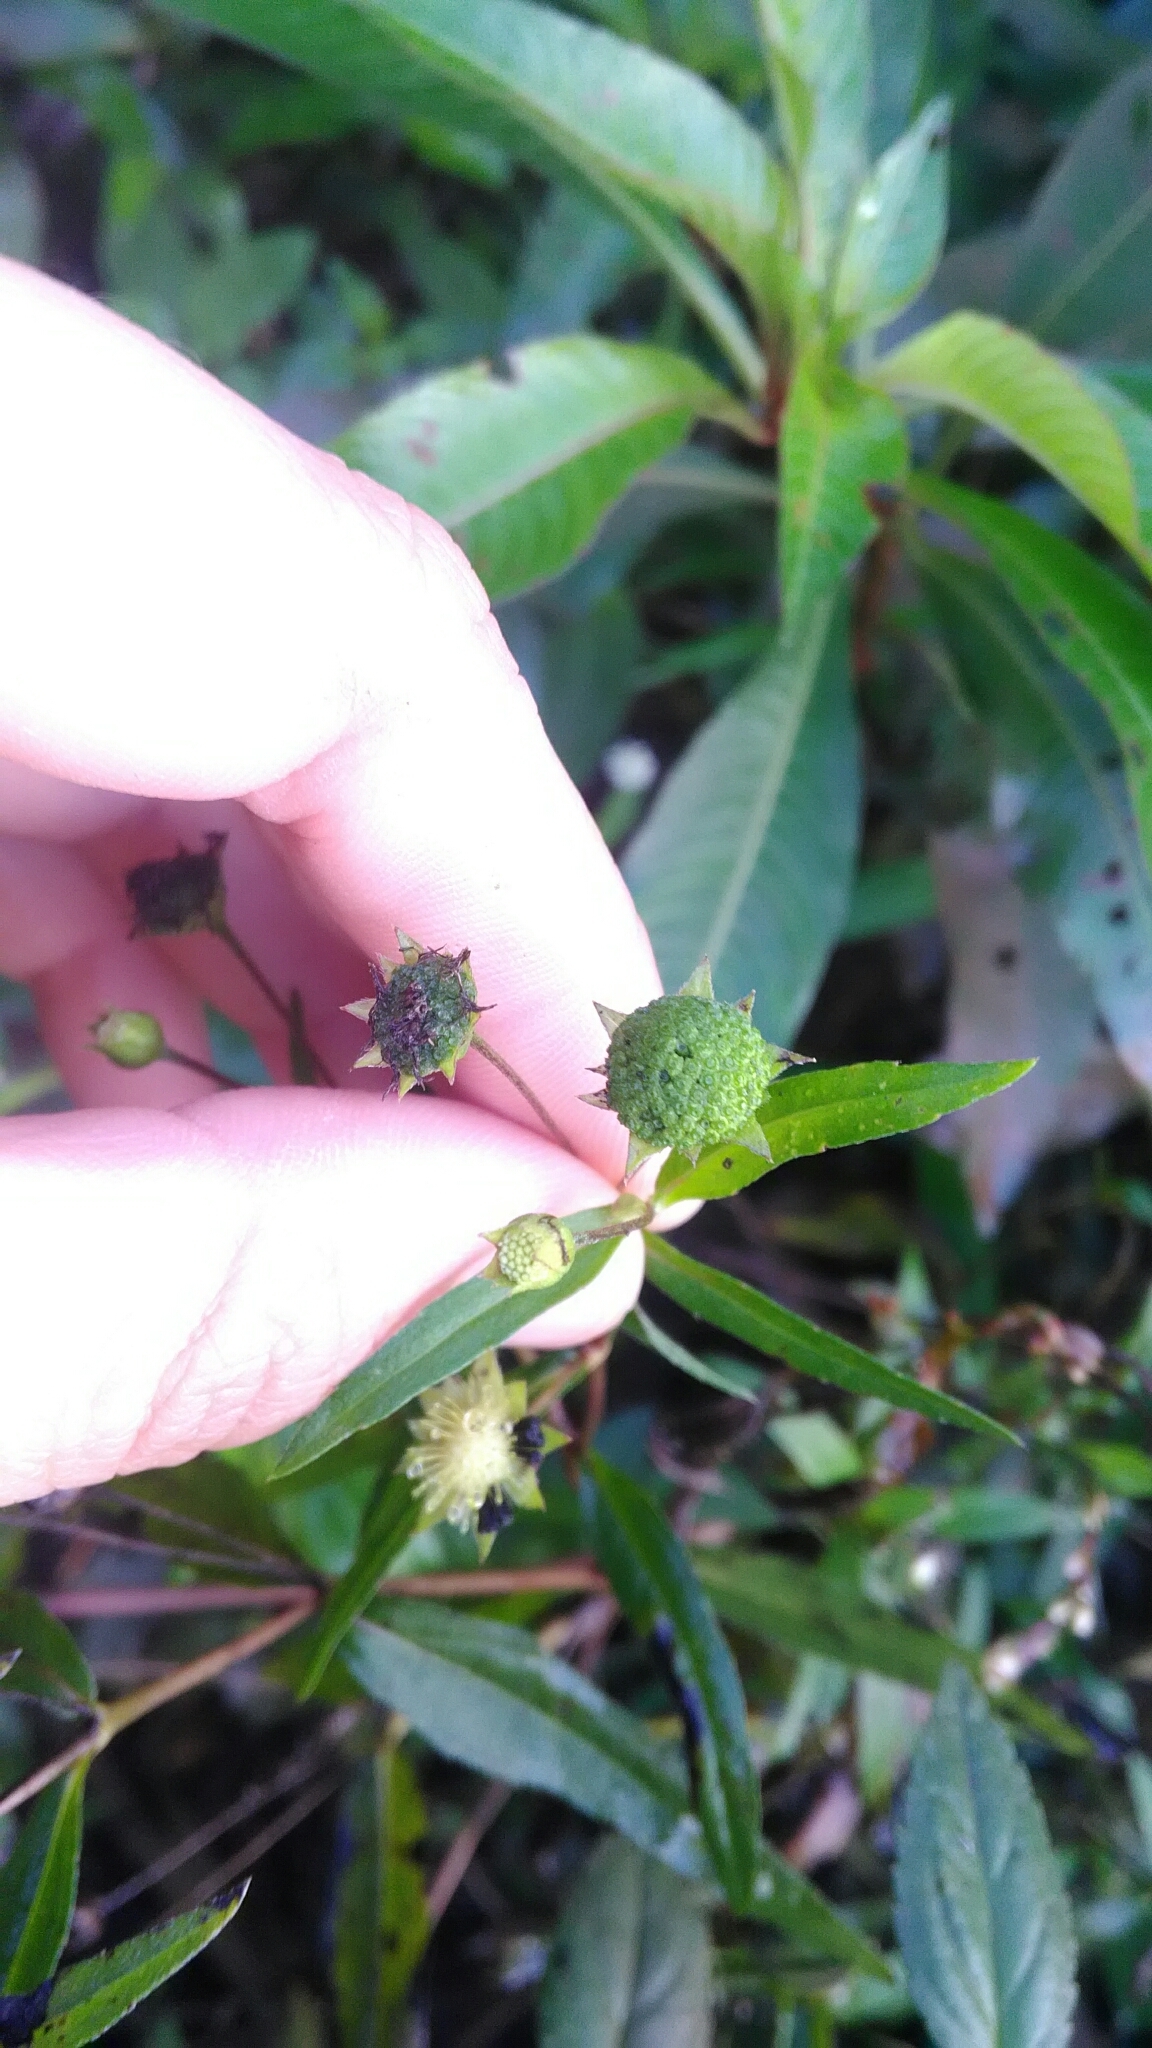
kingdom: Plantae
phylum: Tracheophyta
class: Magnoliopsida
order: Asterales
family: Asteraceae
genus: Eclipta
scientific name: Eclipta prostrata
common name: False daisy
